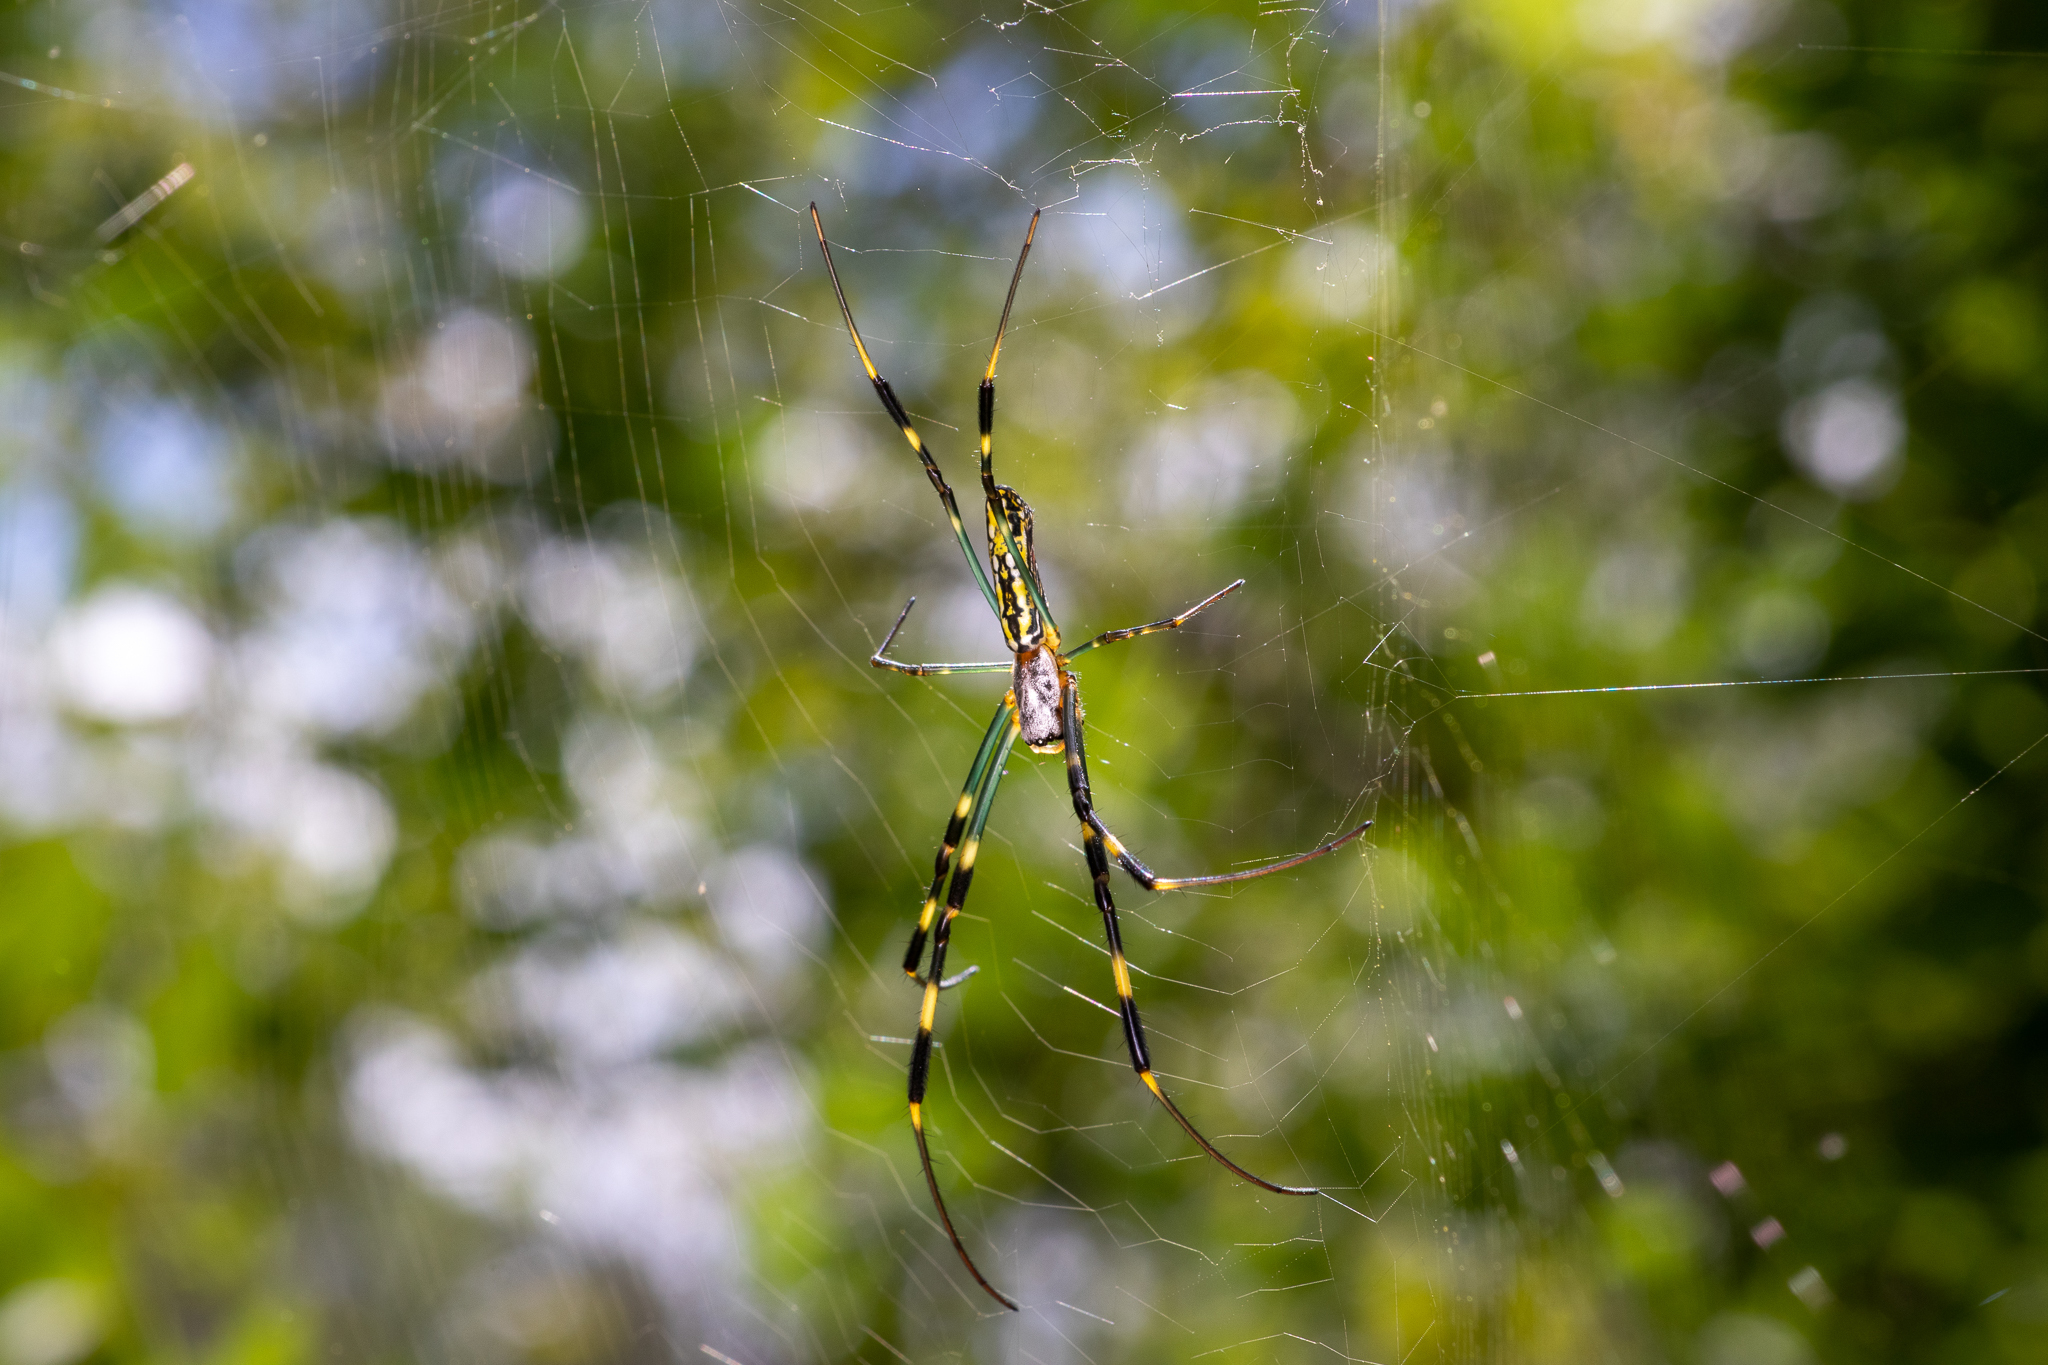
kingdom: Animalia
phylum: Arthropoda
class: Arachnida
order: Araneae
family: Araneidae
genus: Trichonephila
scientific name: Trichonephila clavata
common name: Jorō spider
